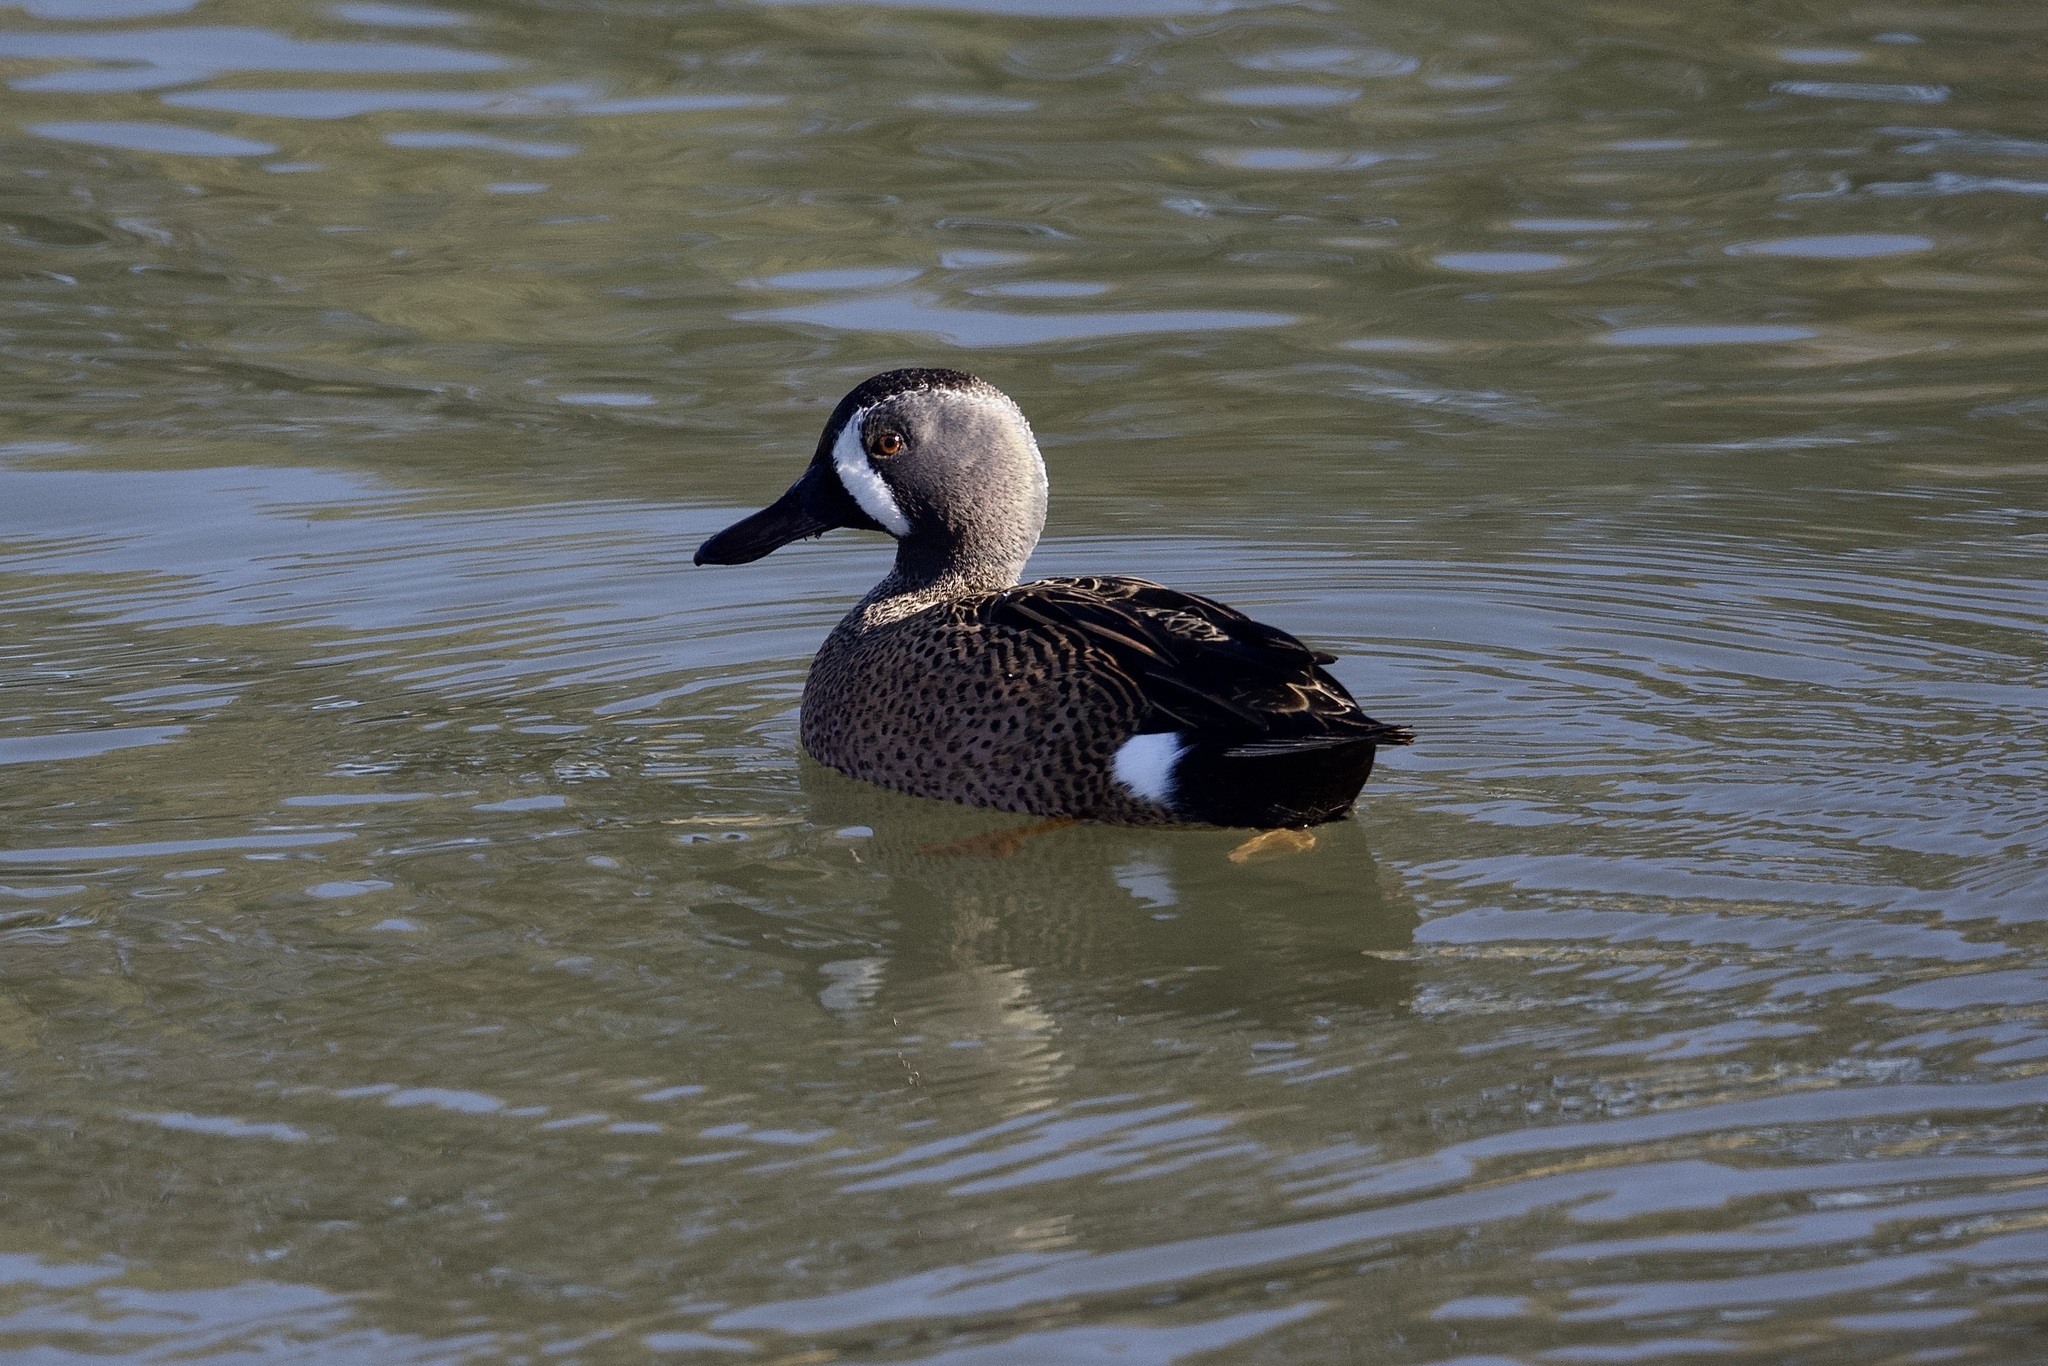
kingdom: Animalia
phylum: Chordata
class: Aves
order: Anseriformes
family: Anatidae
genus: Spatula
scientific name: Spatula discors
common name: Blue-winged teal
